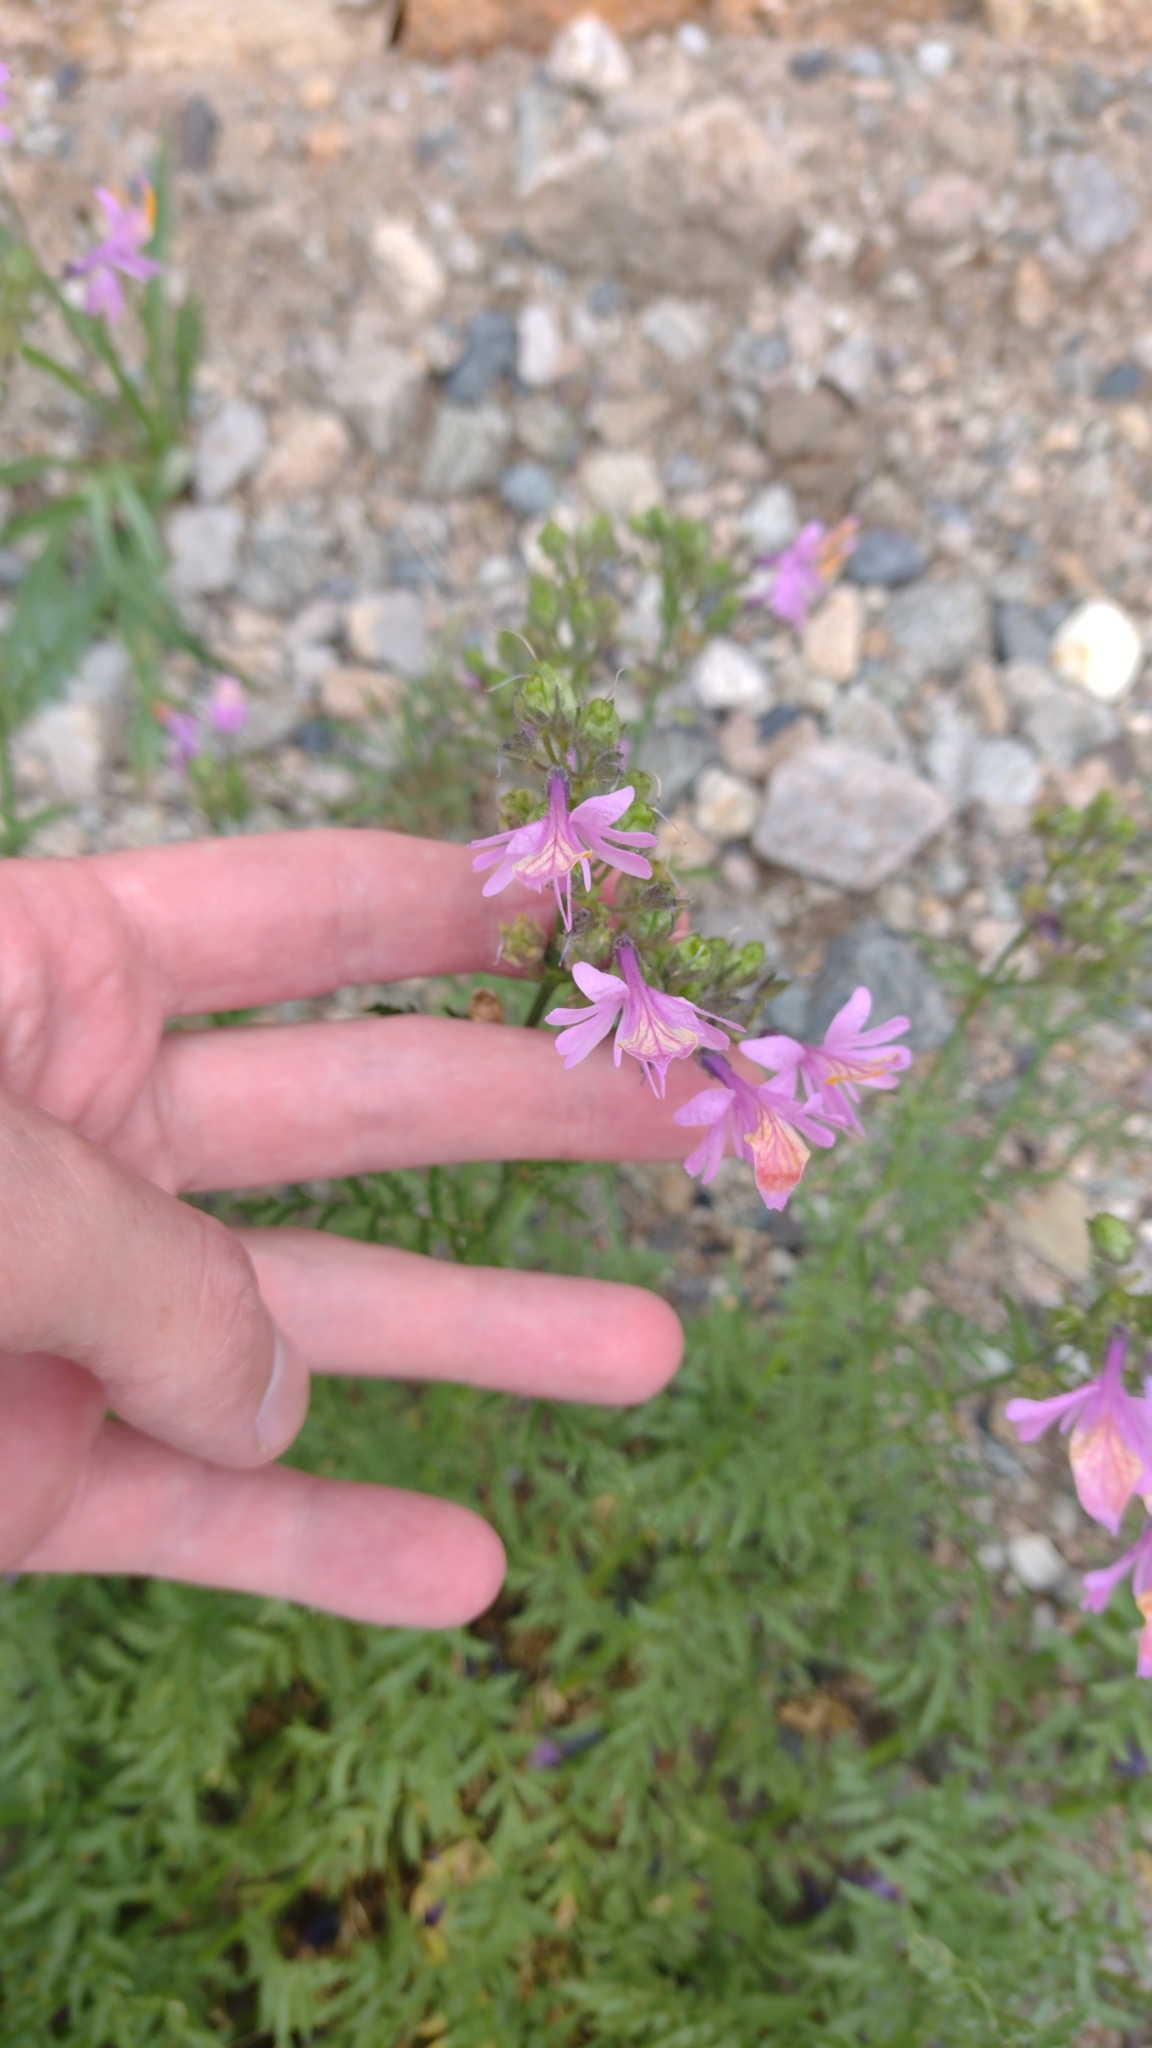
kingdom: Plantae
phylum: Tracheophyta
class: Magnoliopsida
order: Solanales
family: Solanaceae
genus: Schizanthus
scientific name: Schizanthus grahamii
